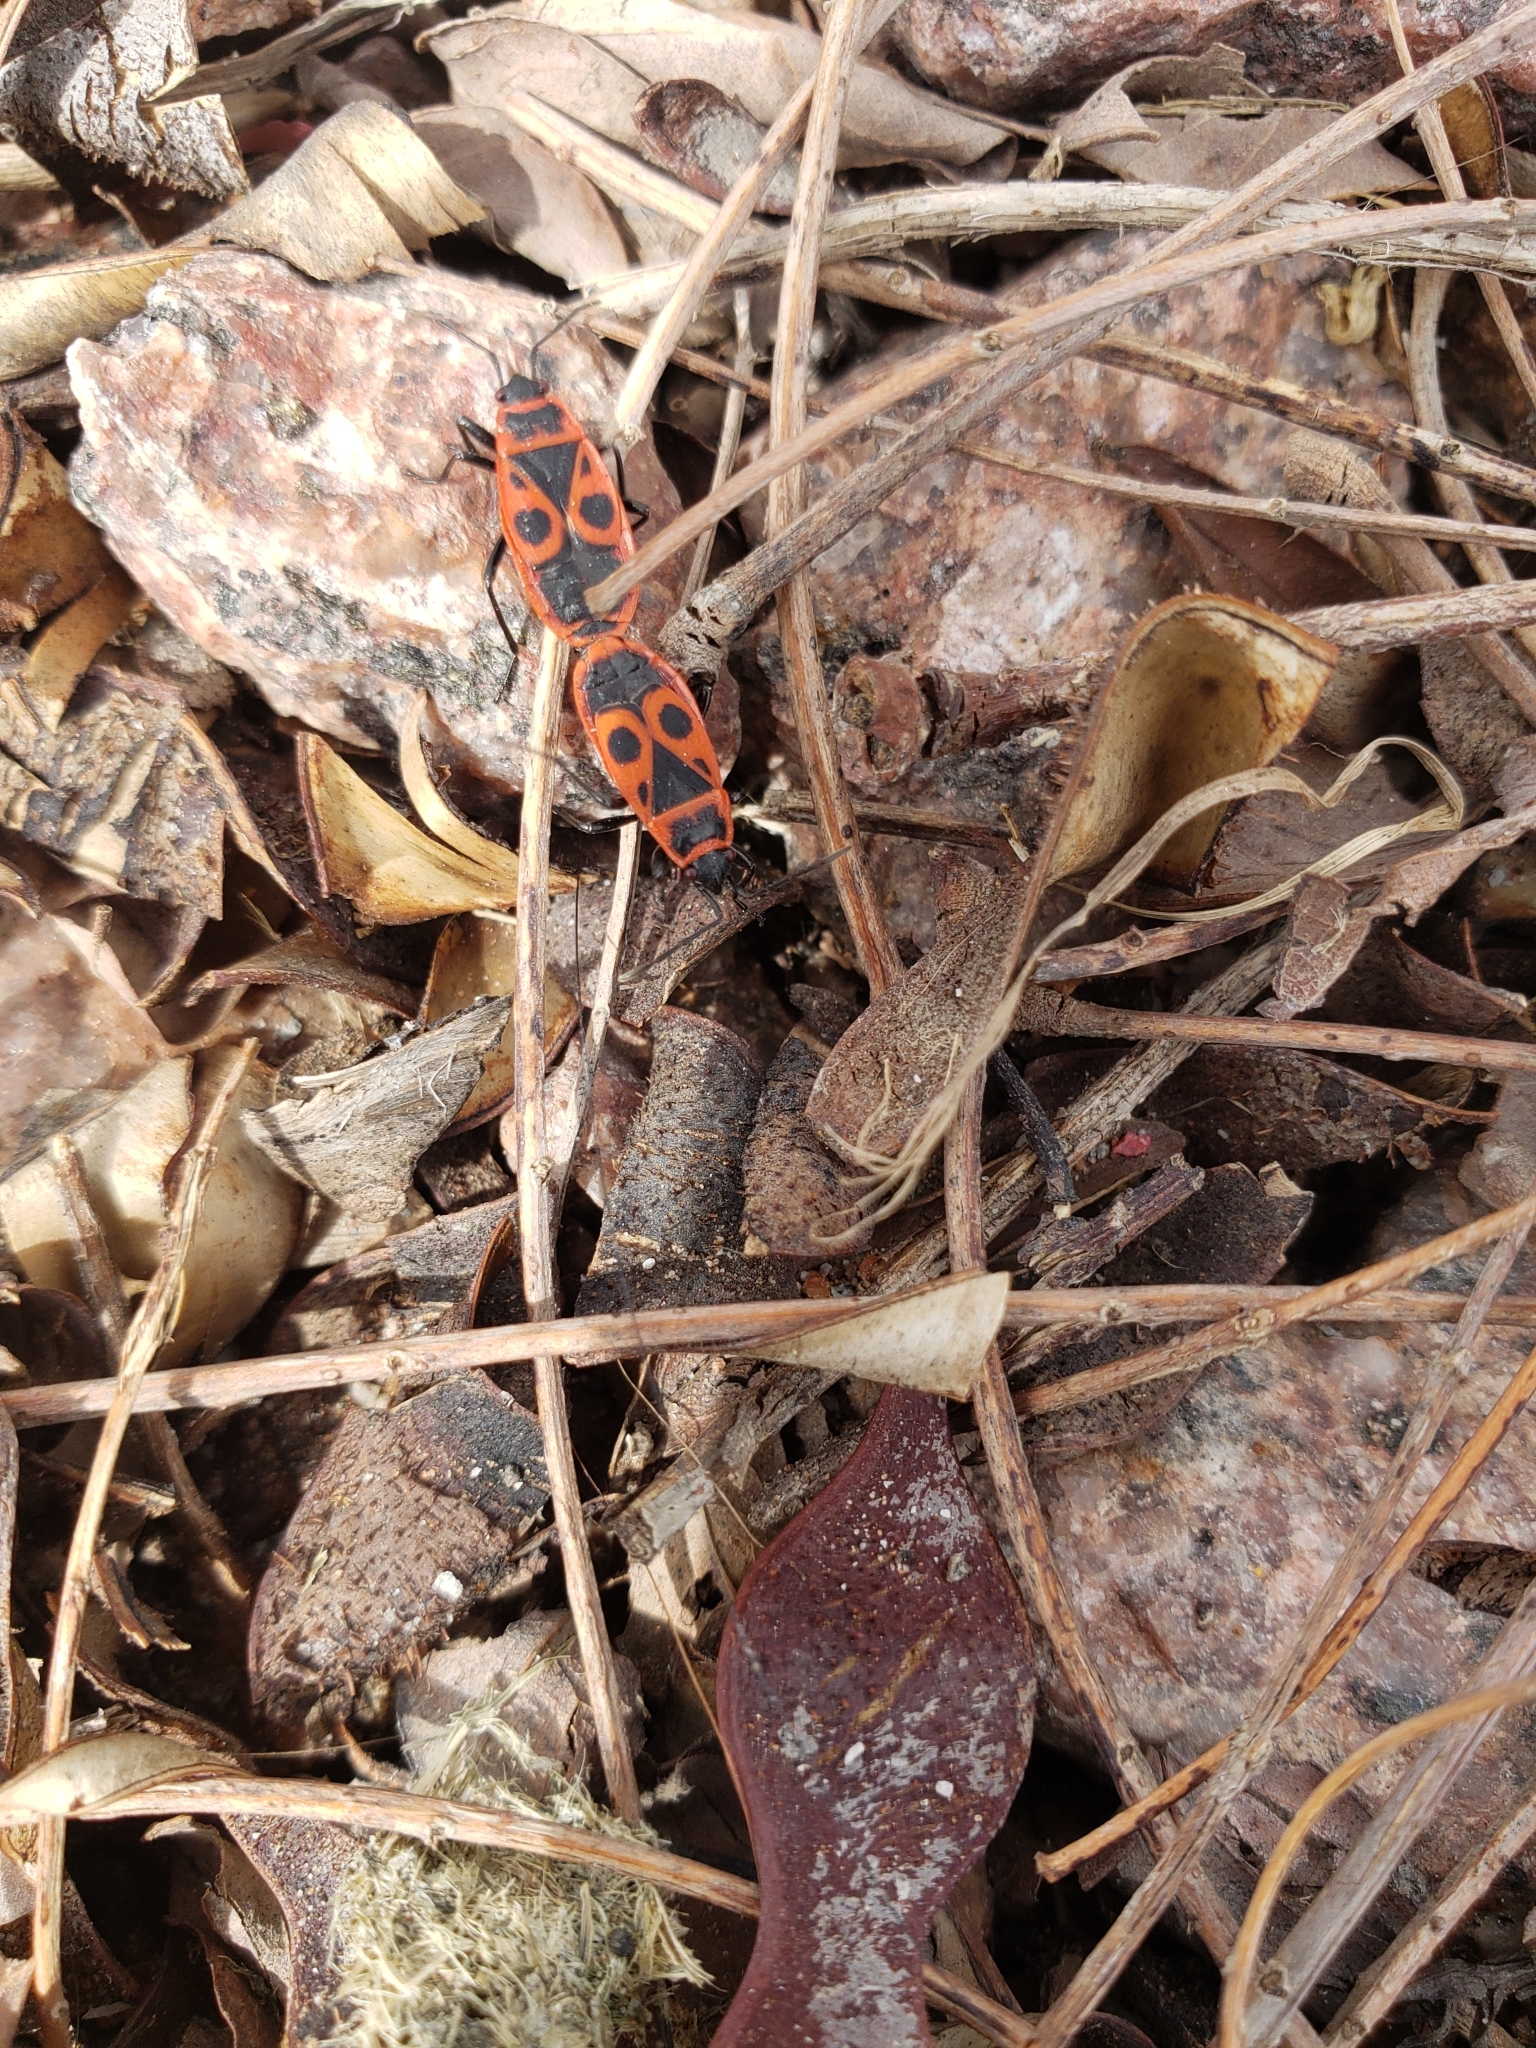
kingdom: Animalia
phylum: Arthropoda
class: Insecta
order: Hemiptera
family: Pyrrhocoridae
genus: Pyrrhocoris
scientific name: Pyrrhocoris apterus
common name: Firebug
